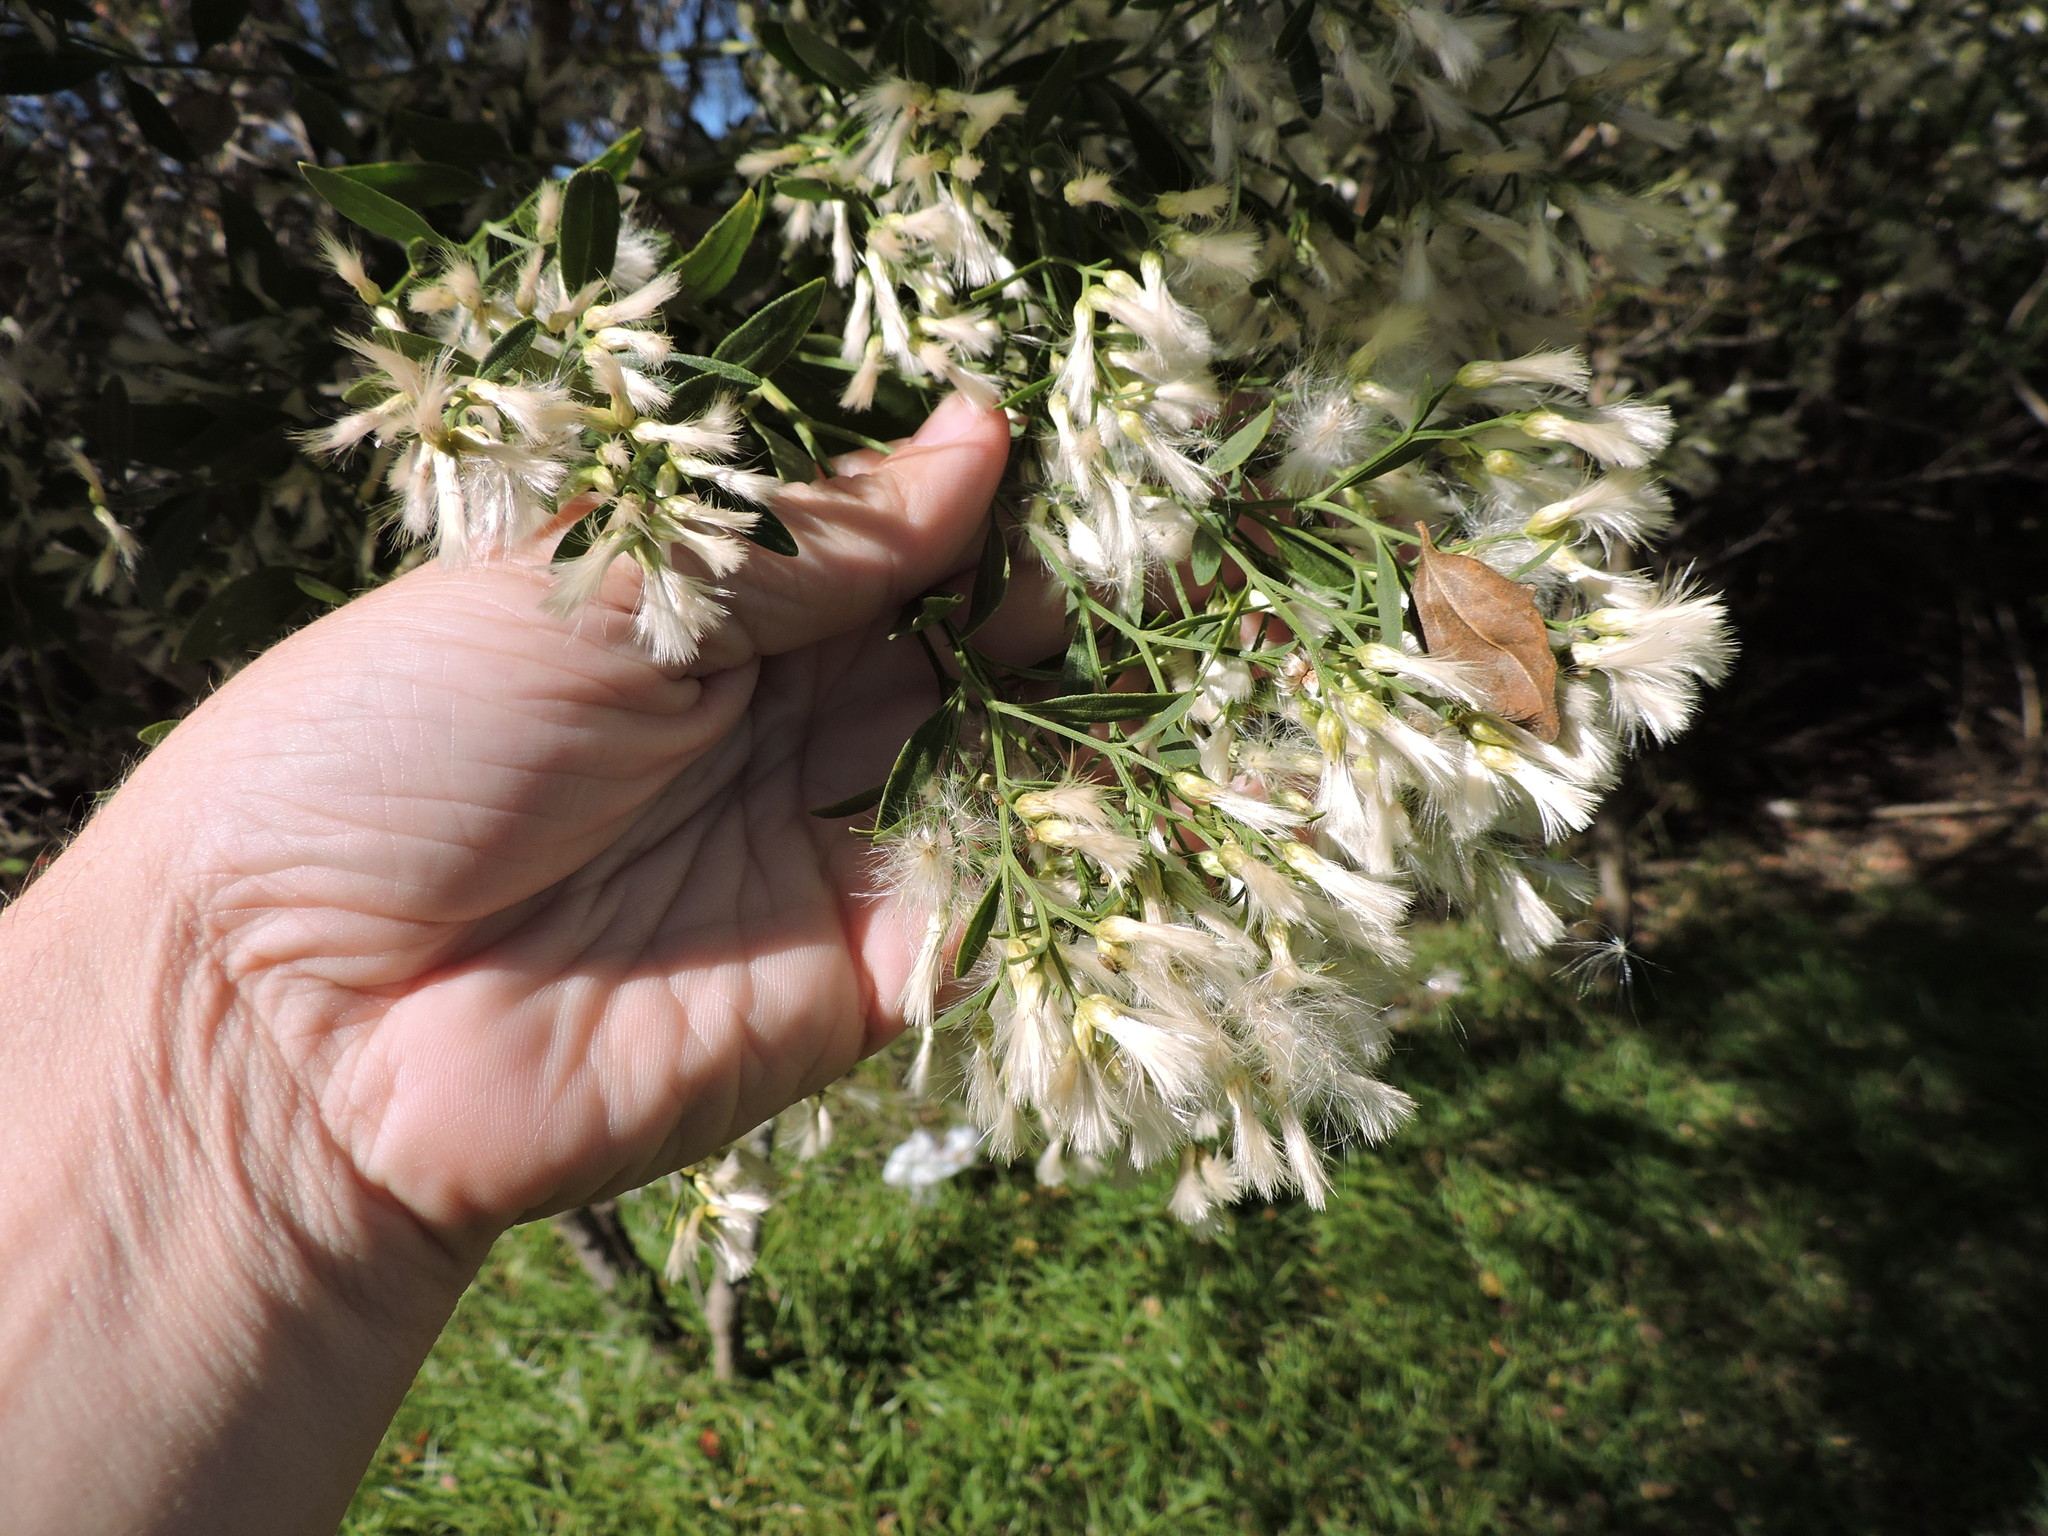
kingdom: Plantae
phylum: Tracheophyta
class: Magnoliopsida
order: Asterales
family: Asteraceae
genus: Baccharis
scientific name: Baccharis halimifolia
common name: Eastern baccharis
